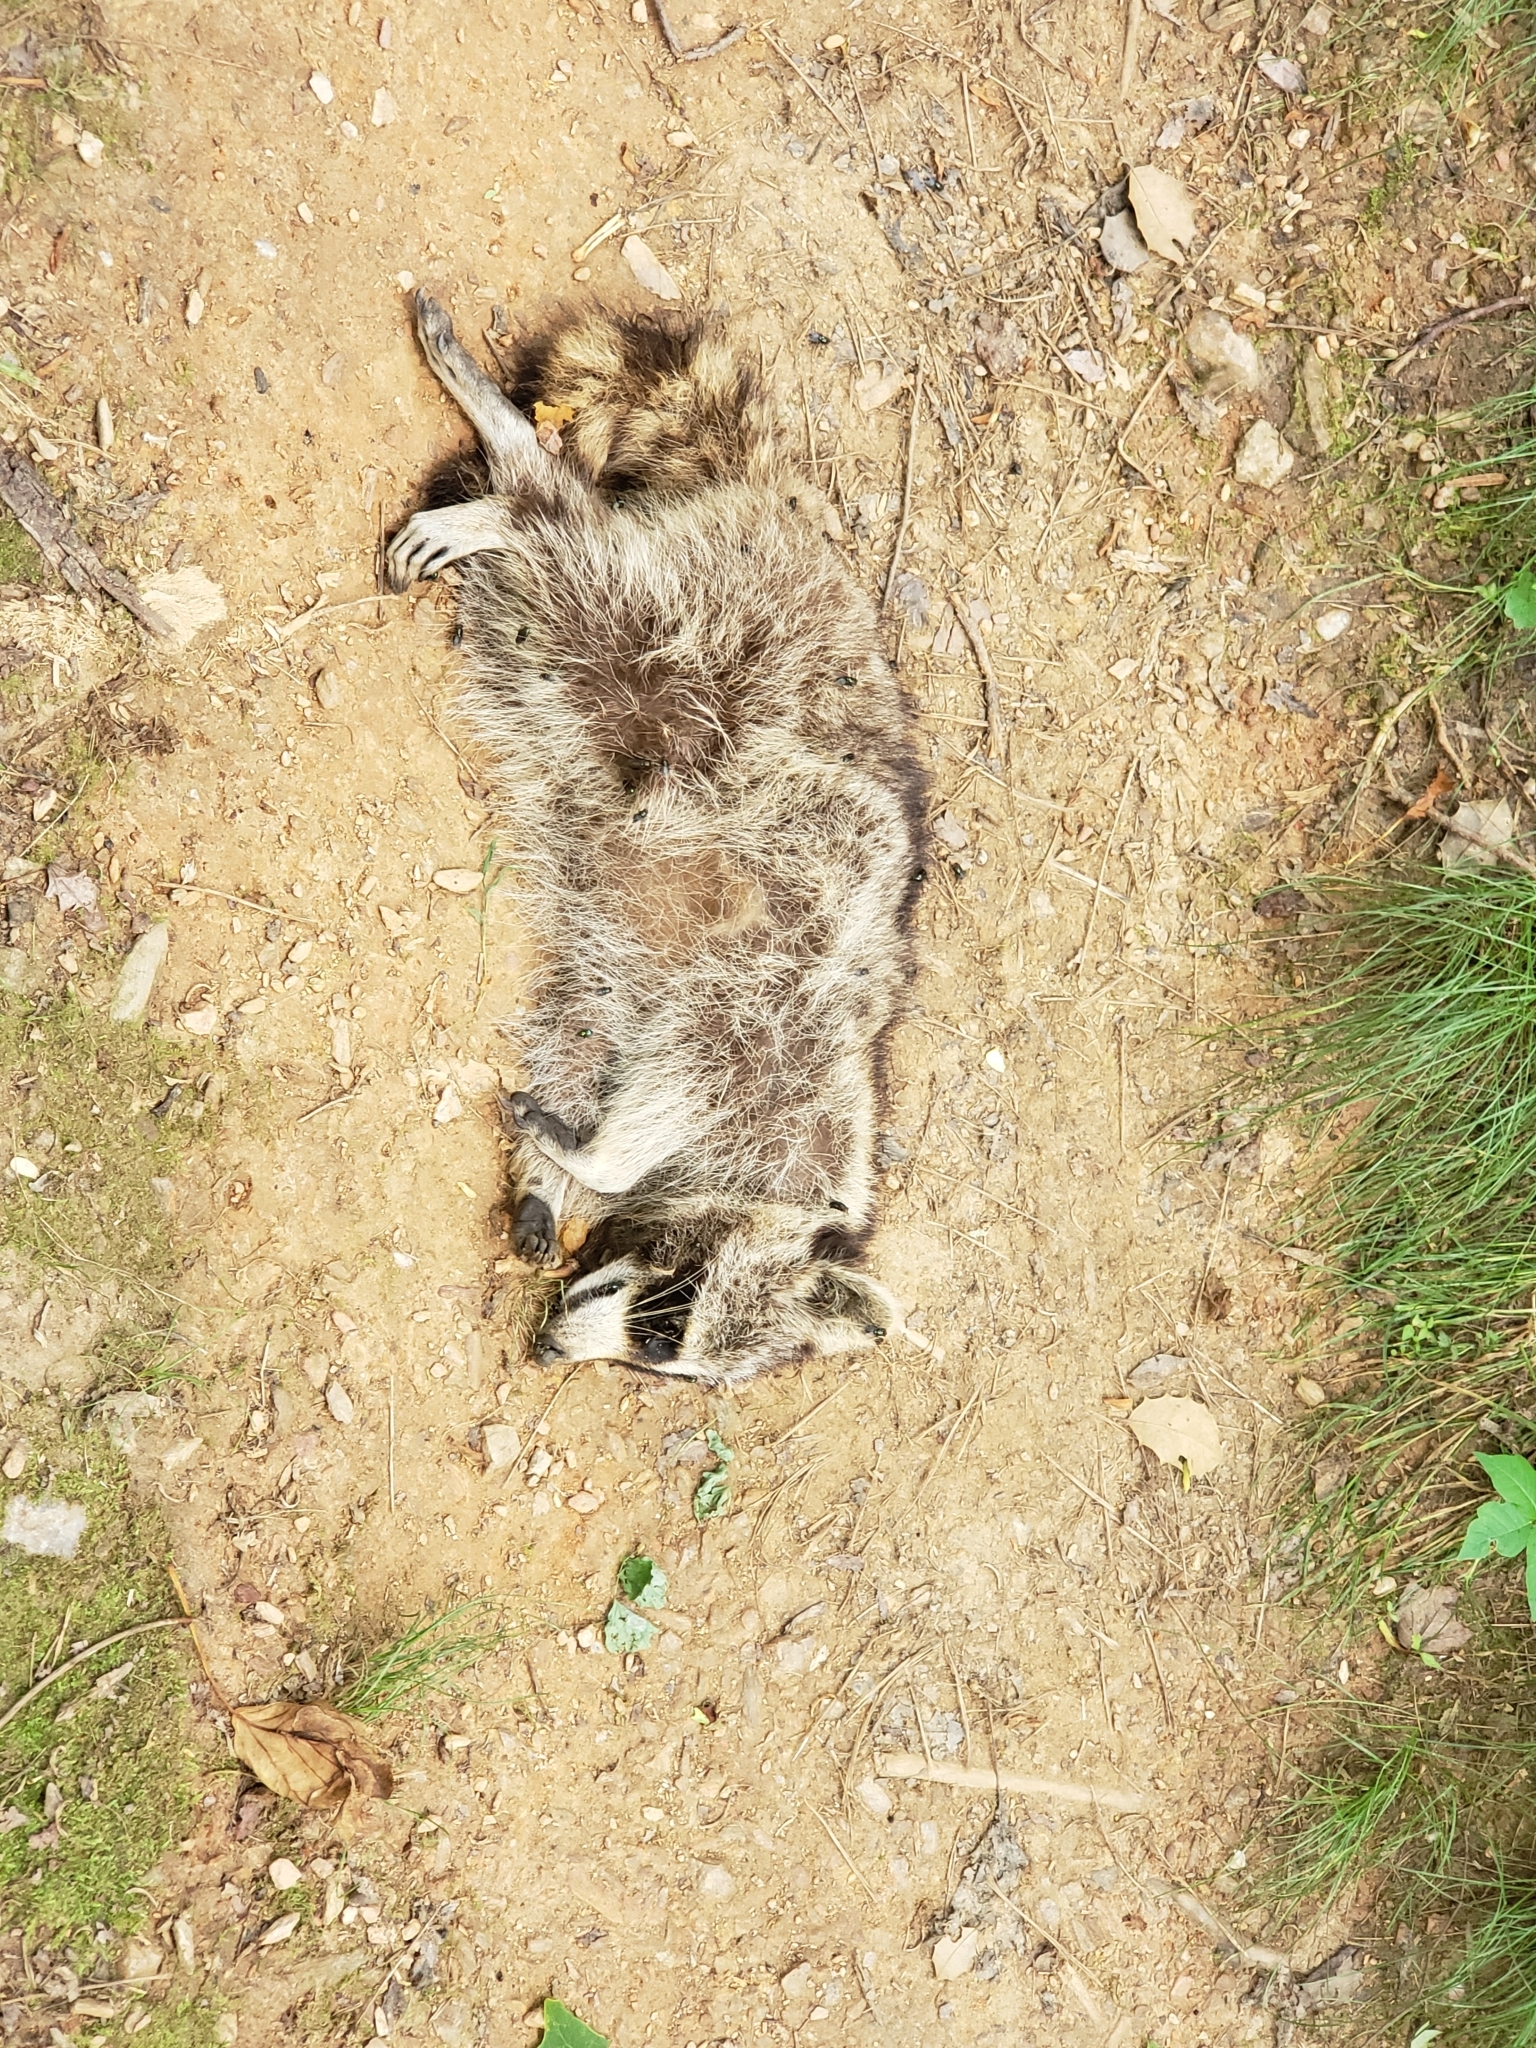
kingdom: Animalia
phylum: Chordata
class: Mammalia
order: Carnivora
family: Procyonidae
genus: Procyon
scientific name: Procyon lotor
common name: Raccoon
